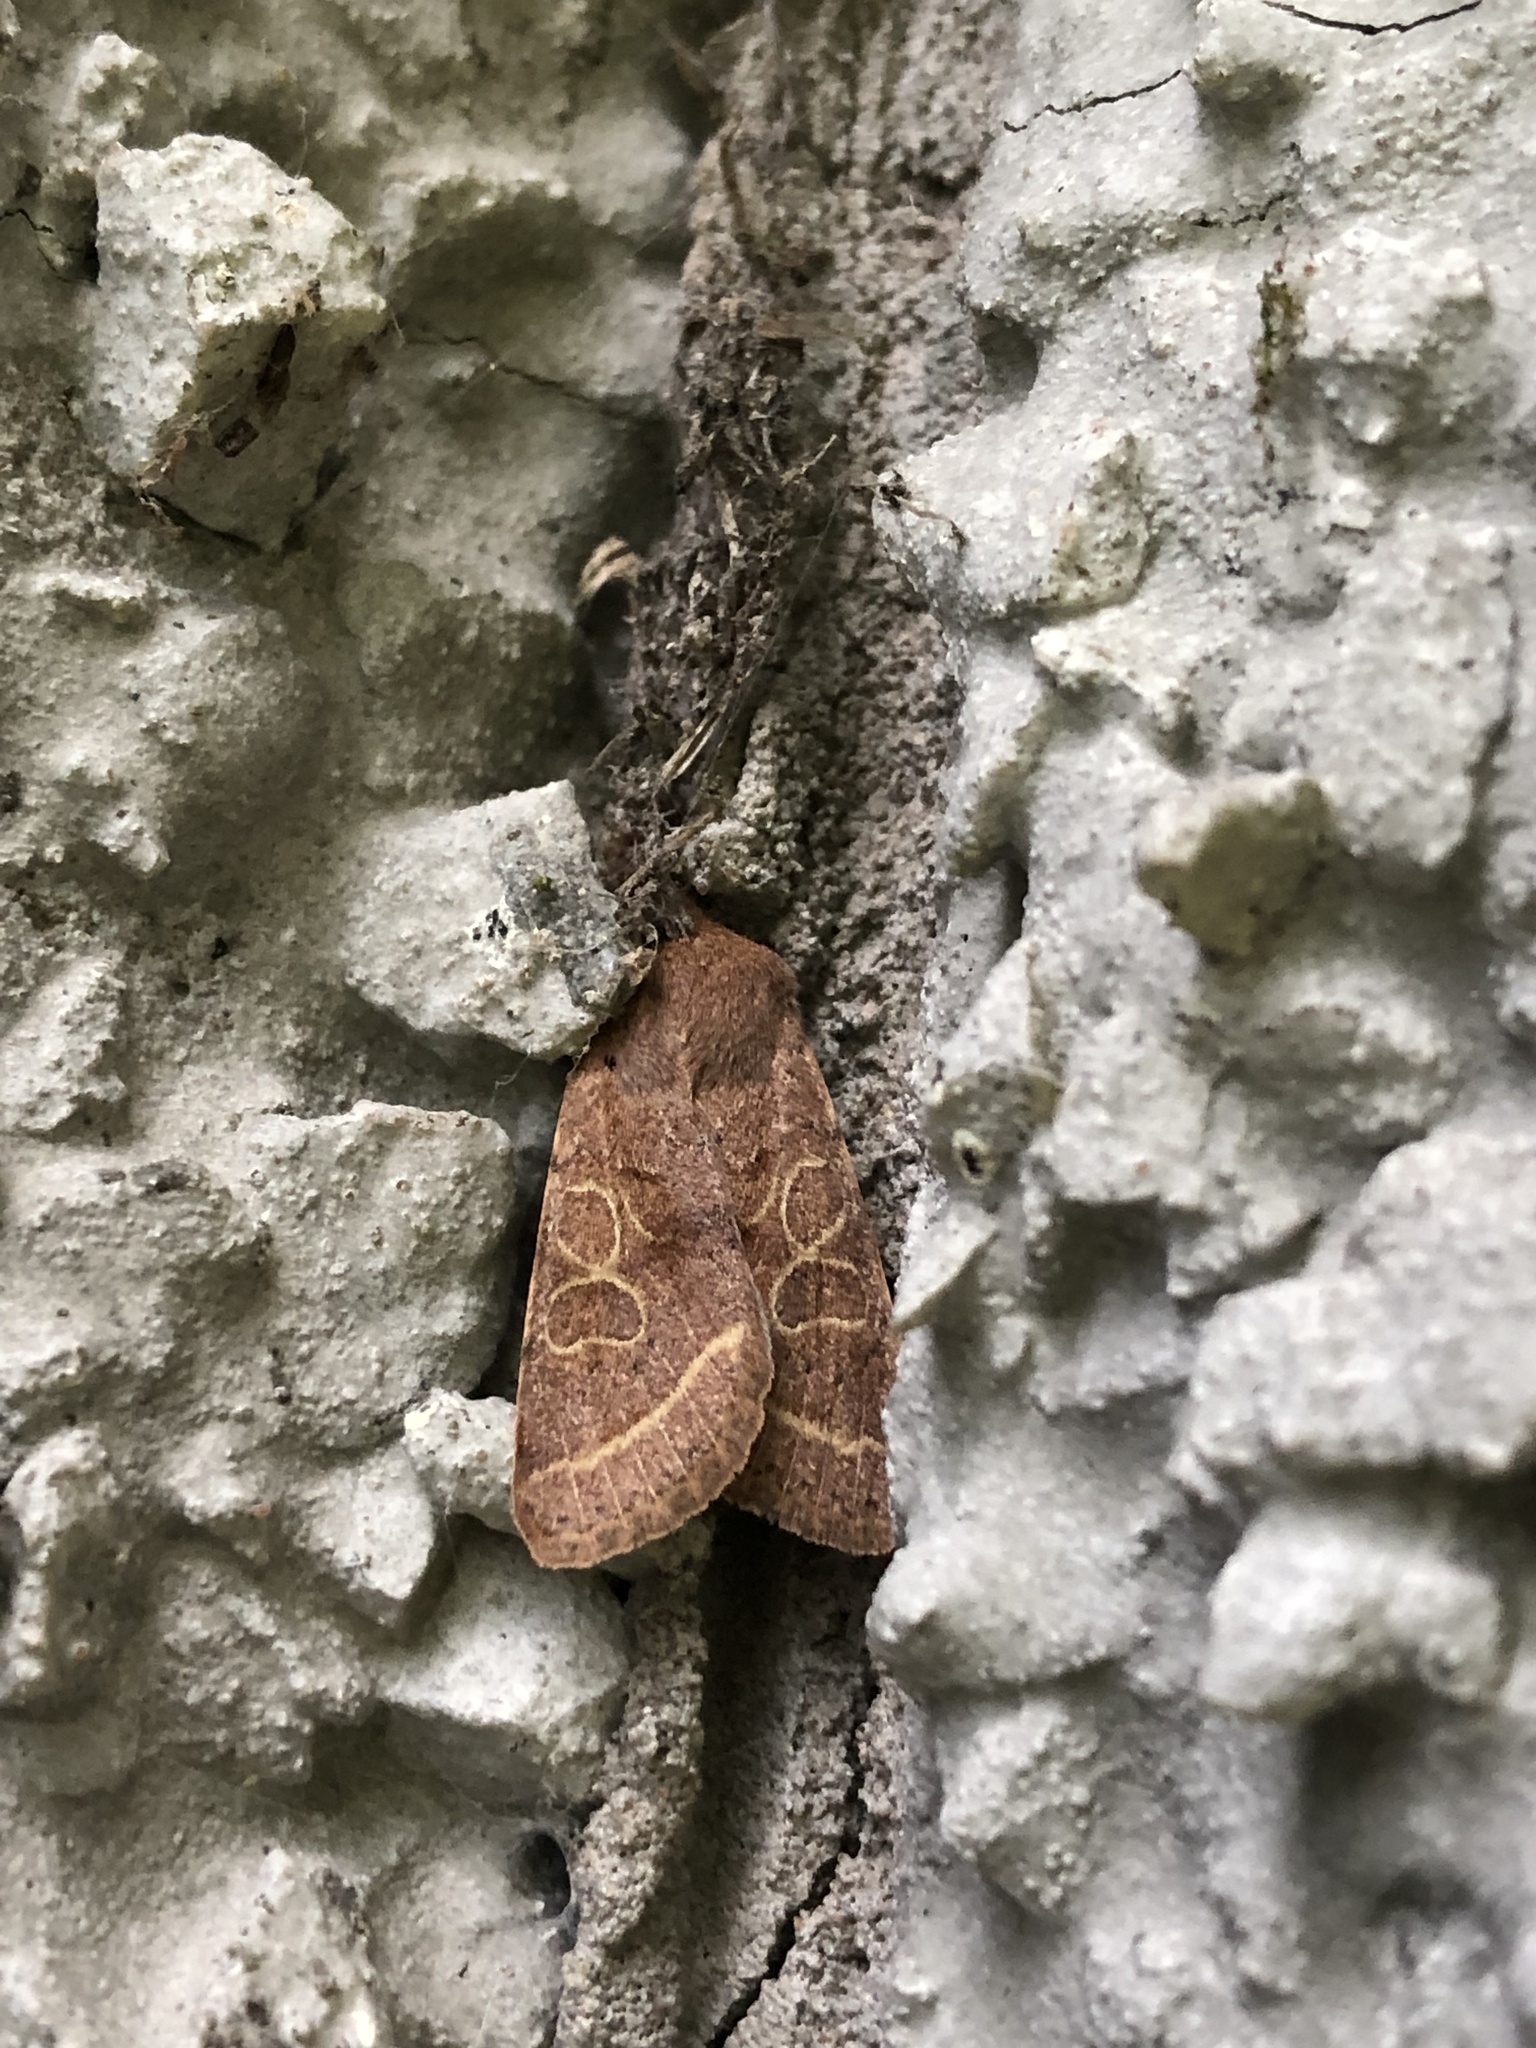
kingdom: Animalia
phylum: Arthropoda
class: Insecta
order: Lepidoptera
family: Noctuidae
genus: Orthosia
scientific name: Orthosia cerasi
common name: Common quaker
